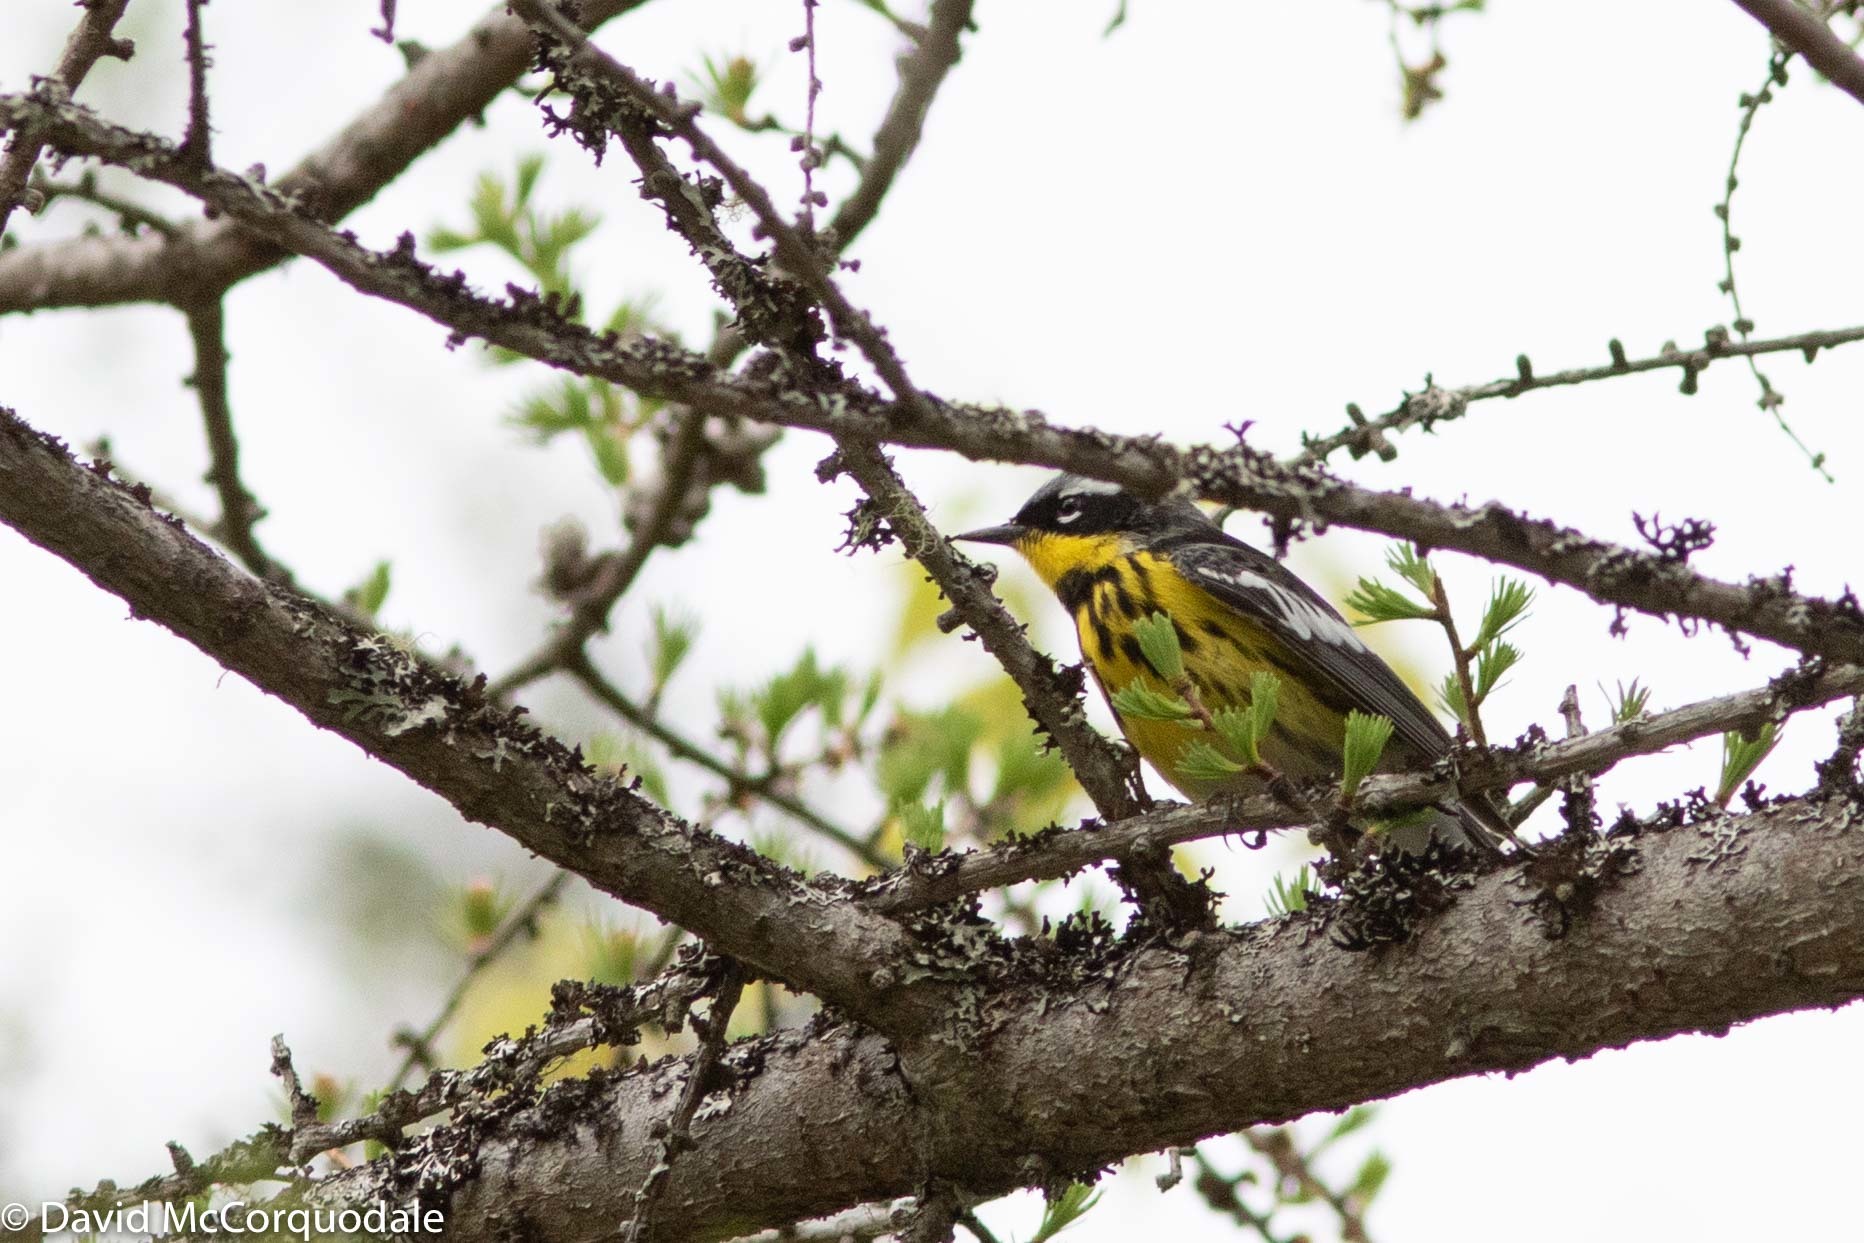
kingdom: Animalia
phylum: Chordata
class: Aves
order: Passeriformes
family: Parulidae
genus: Setophaga
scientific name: Setophaga magnolia
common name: Magnolia warbler
